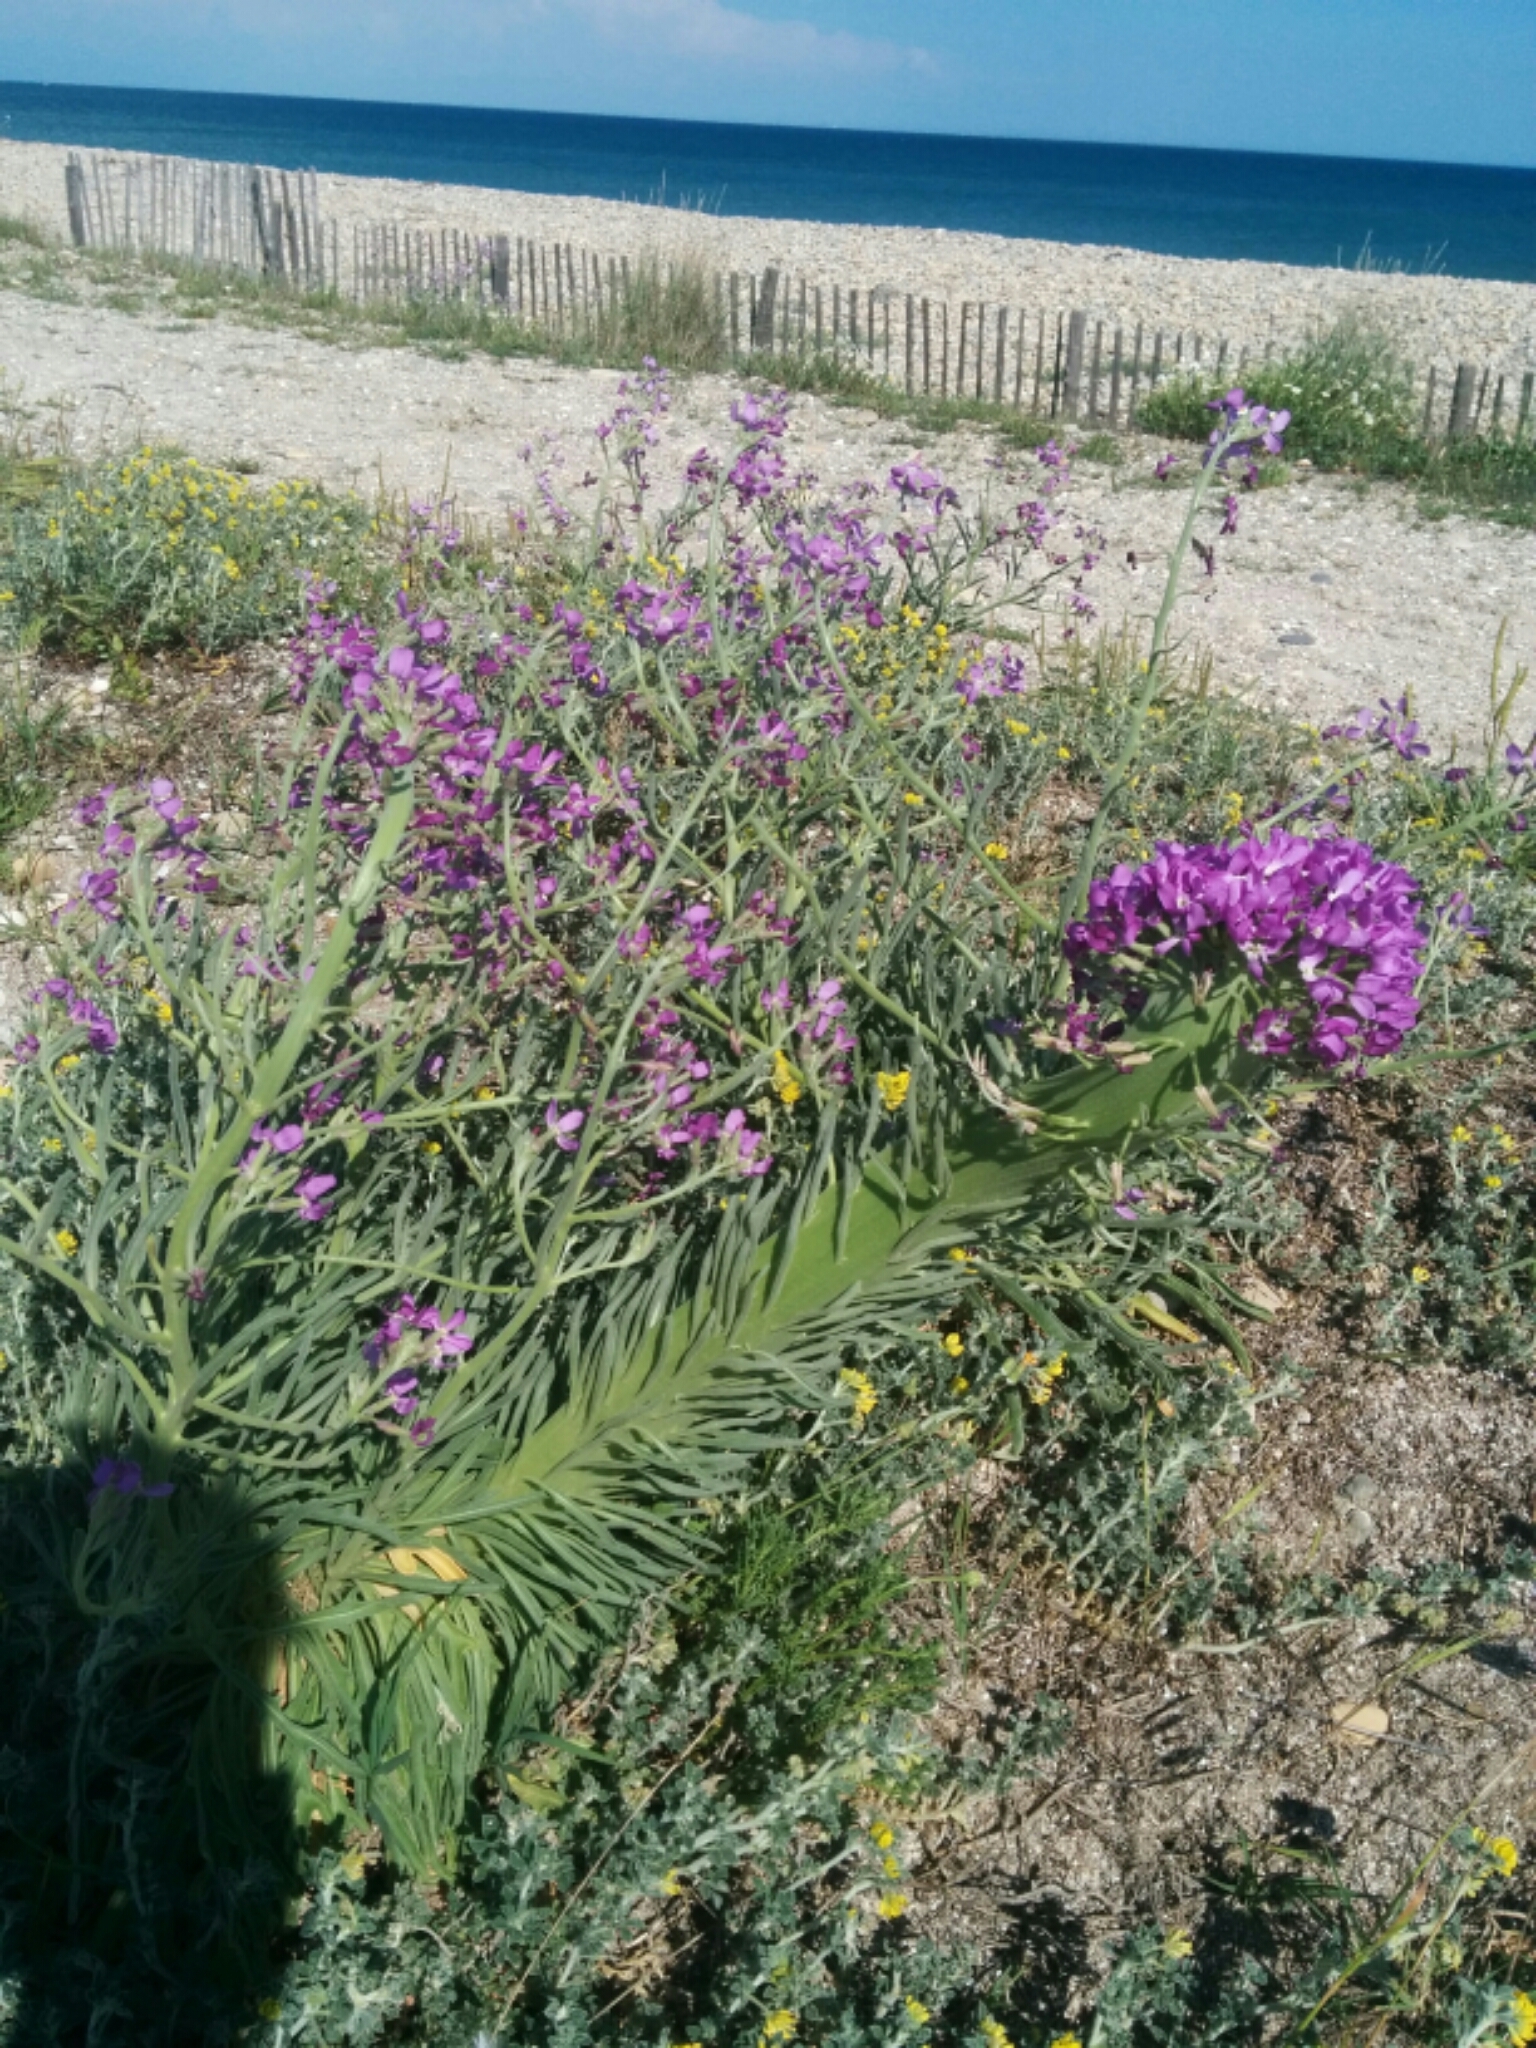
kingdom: Plantae
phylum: Tracheophyta
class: Magnoliopsida
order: Brassicales
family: Brassicaceae
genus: Matthiola
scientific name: Matthiola sinuata
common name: Sea stock
